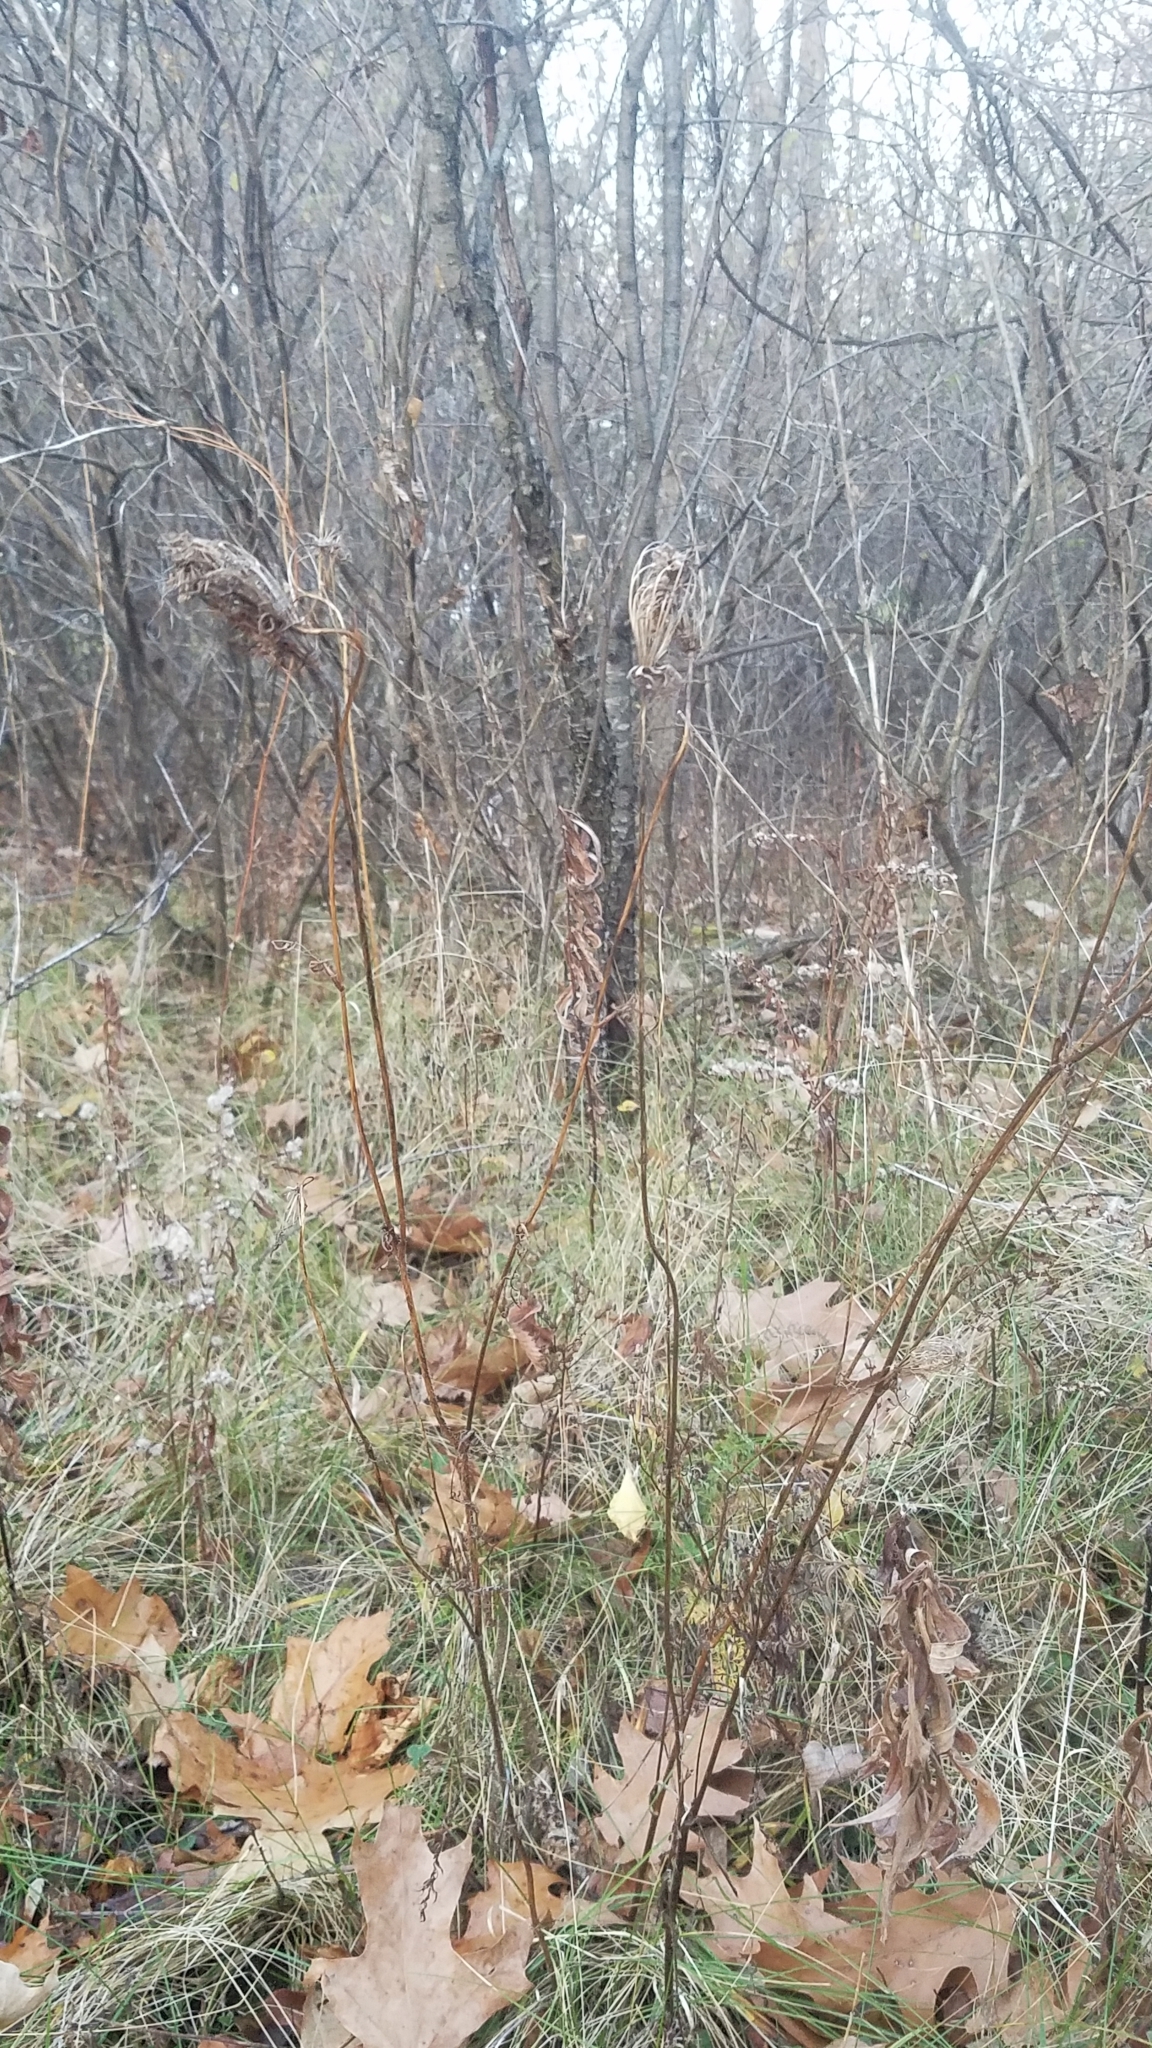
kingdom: Plantae
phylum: Tracheophyta
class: Magnoliopsida
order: Apiales
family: Apiaceae
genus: Daucus
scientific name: Daucus carota
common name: Wild carrot
